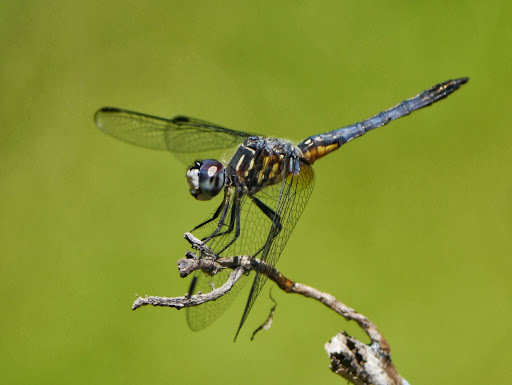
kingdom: Animalia
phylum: Arthropoda
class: Insecta
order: Odonata
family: Libellulidae
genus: Pachydiplax
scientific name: Pachydiplax longipennis
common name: Blue dasher
